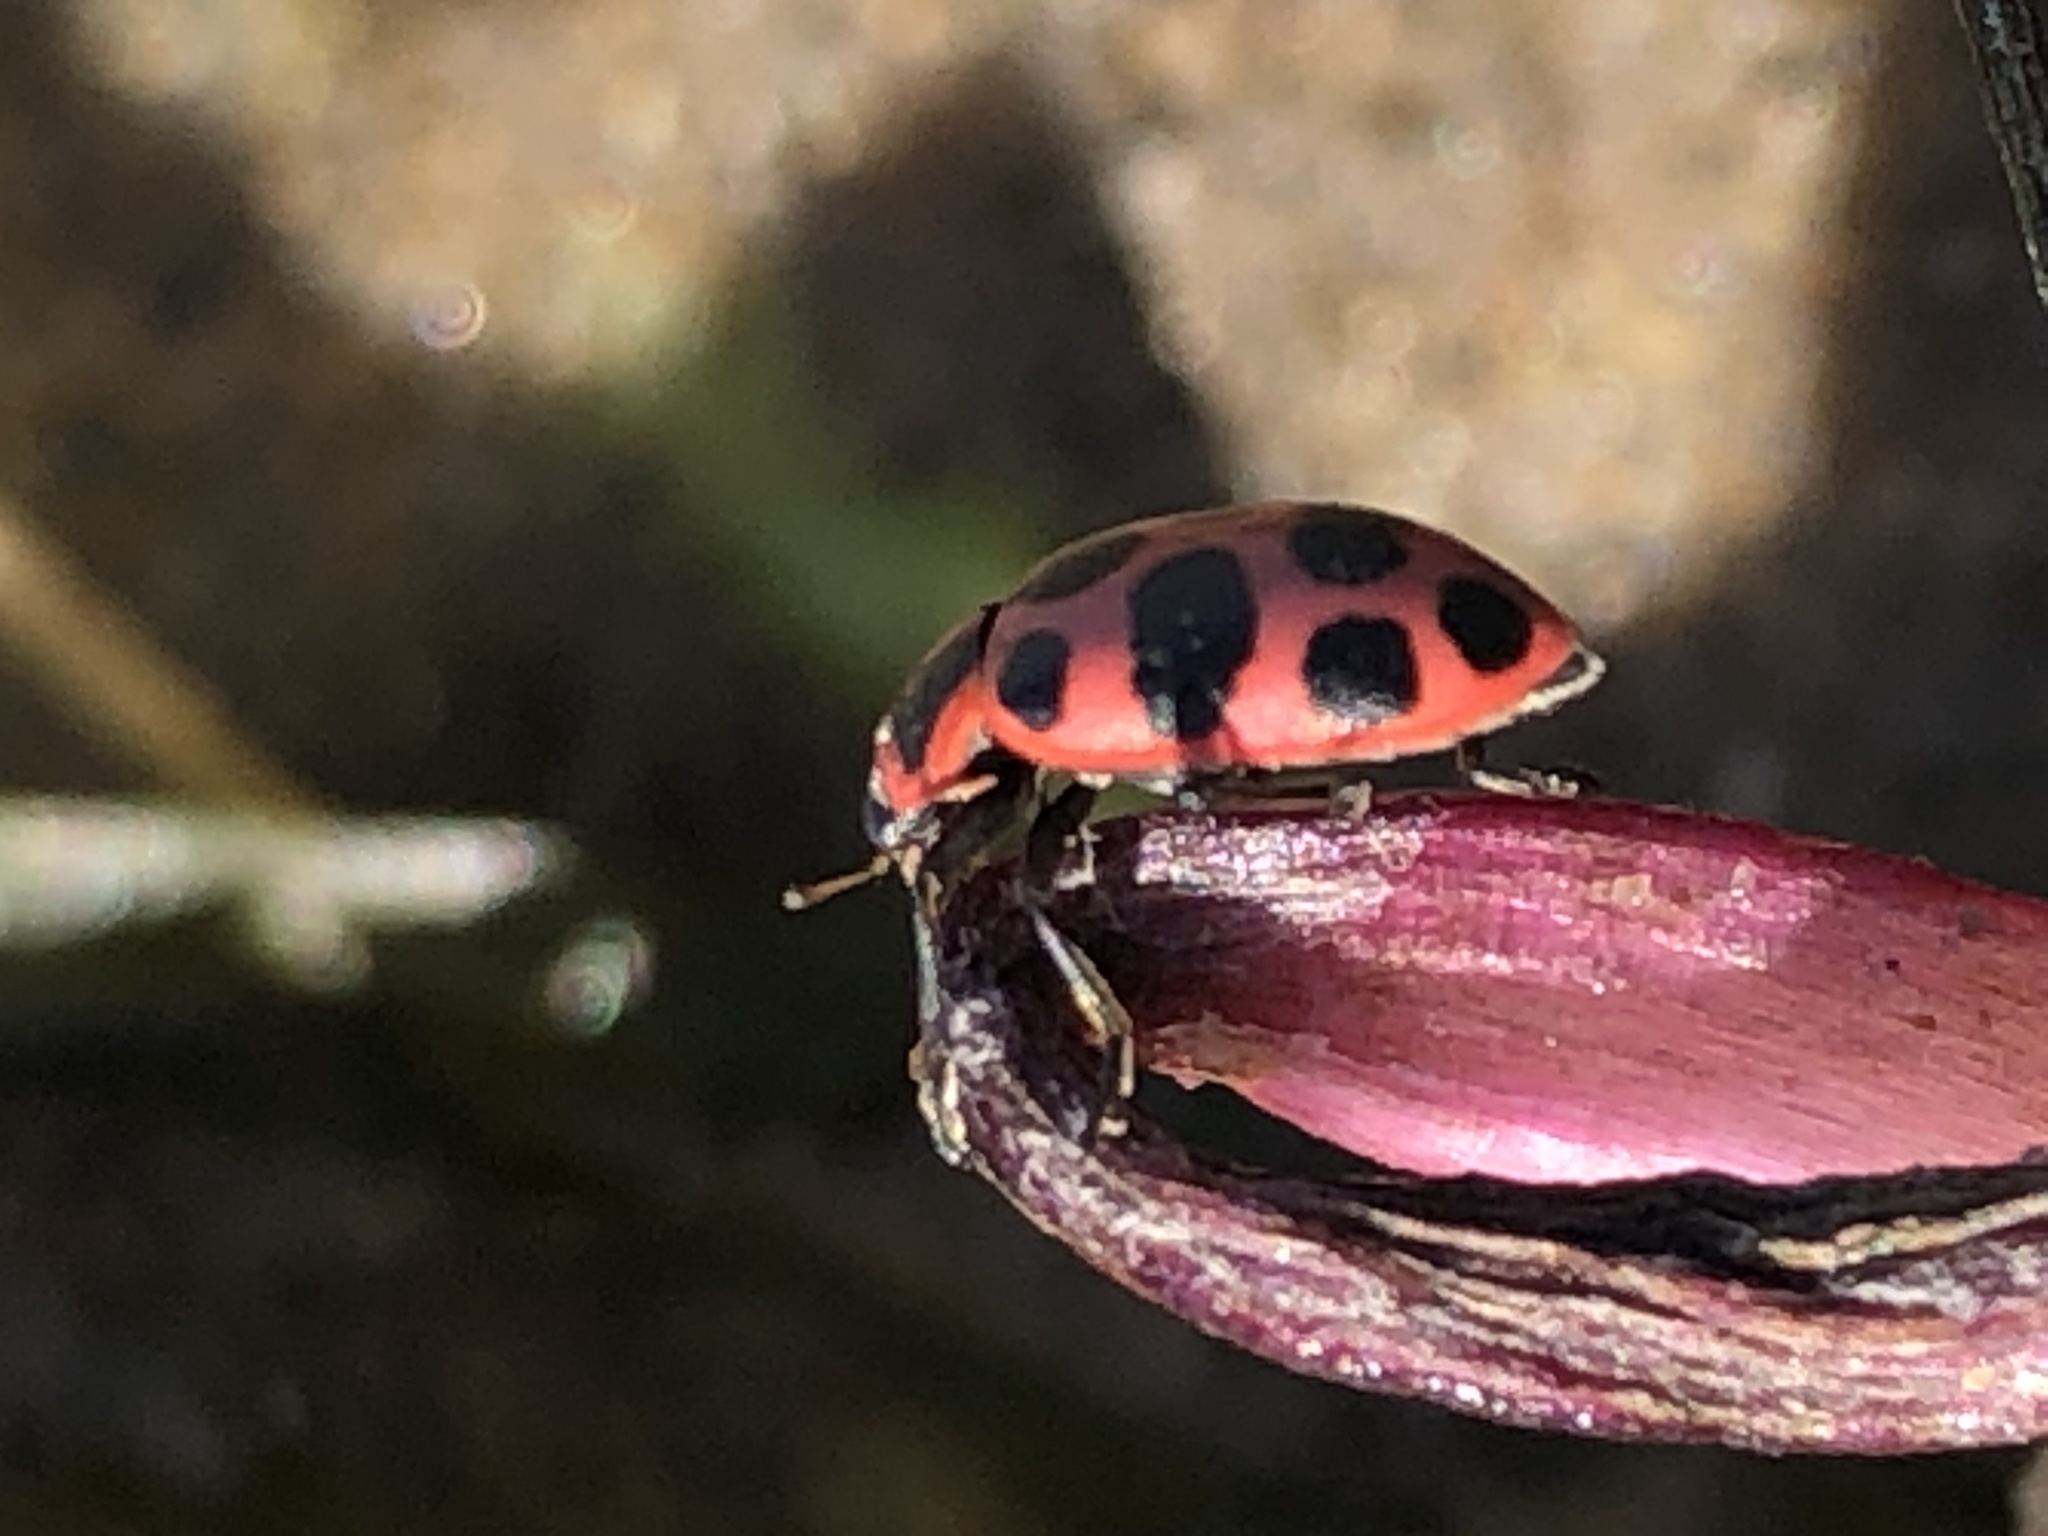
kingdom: Animalia
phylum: Arthropoda
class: Insecta
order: Coleoptera
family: Coccinellidae
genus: Coleomegilla
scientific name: Coleomegilla maculata
